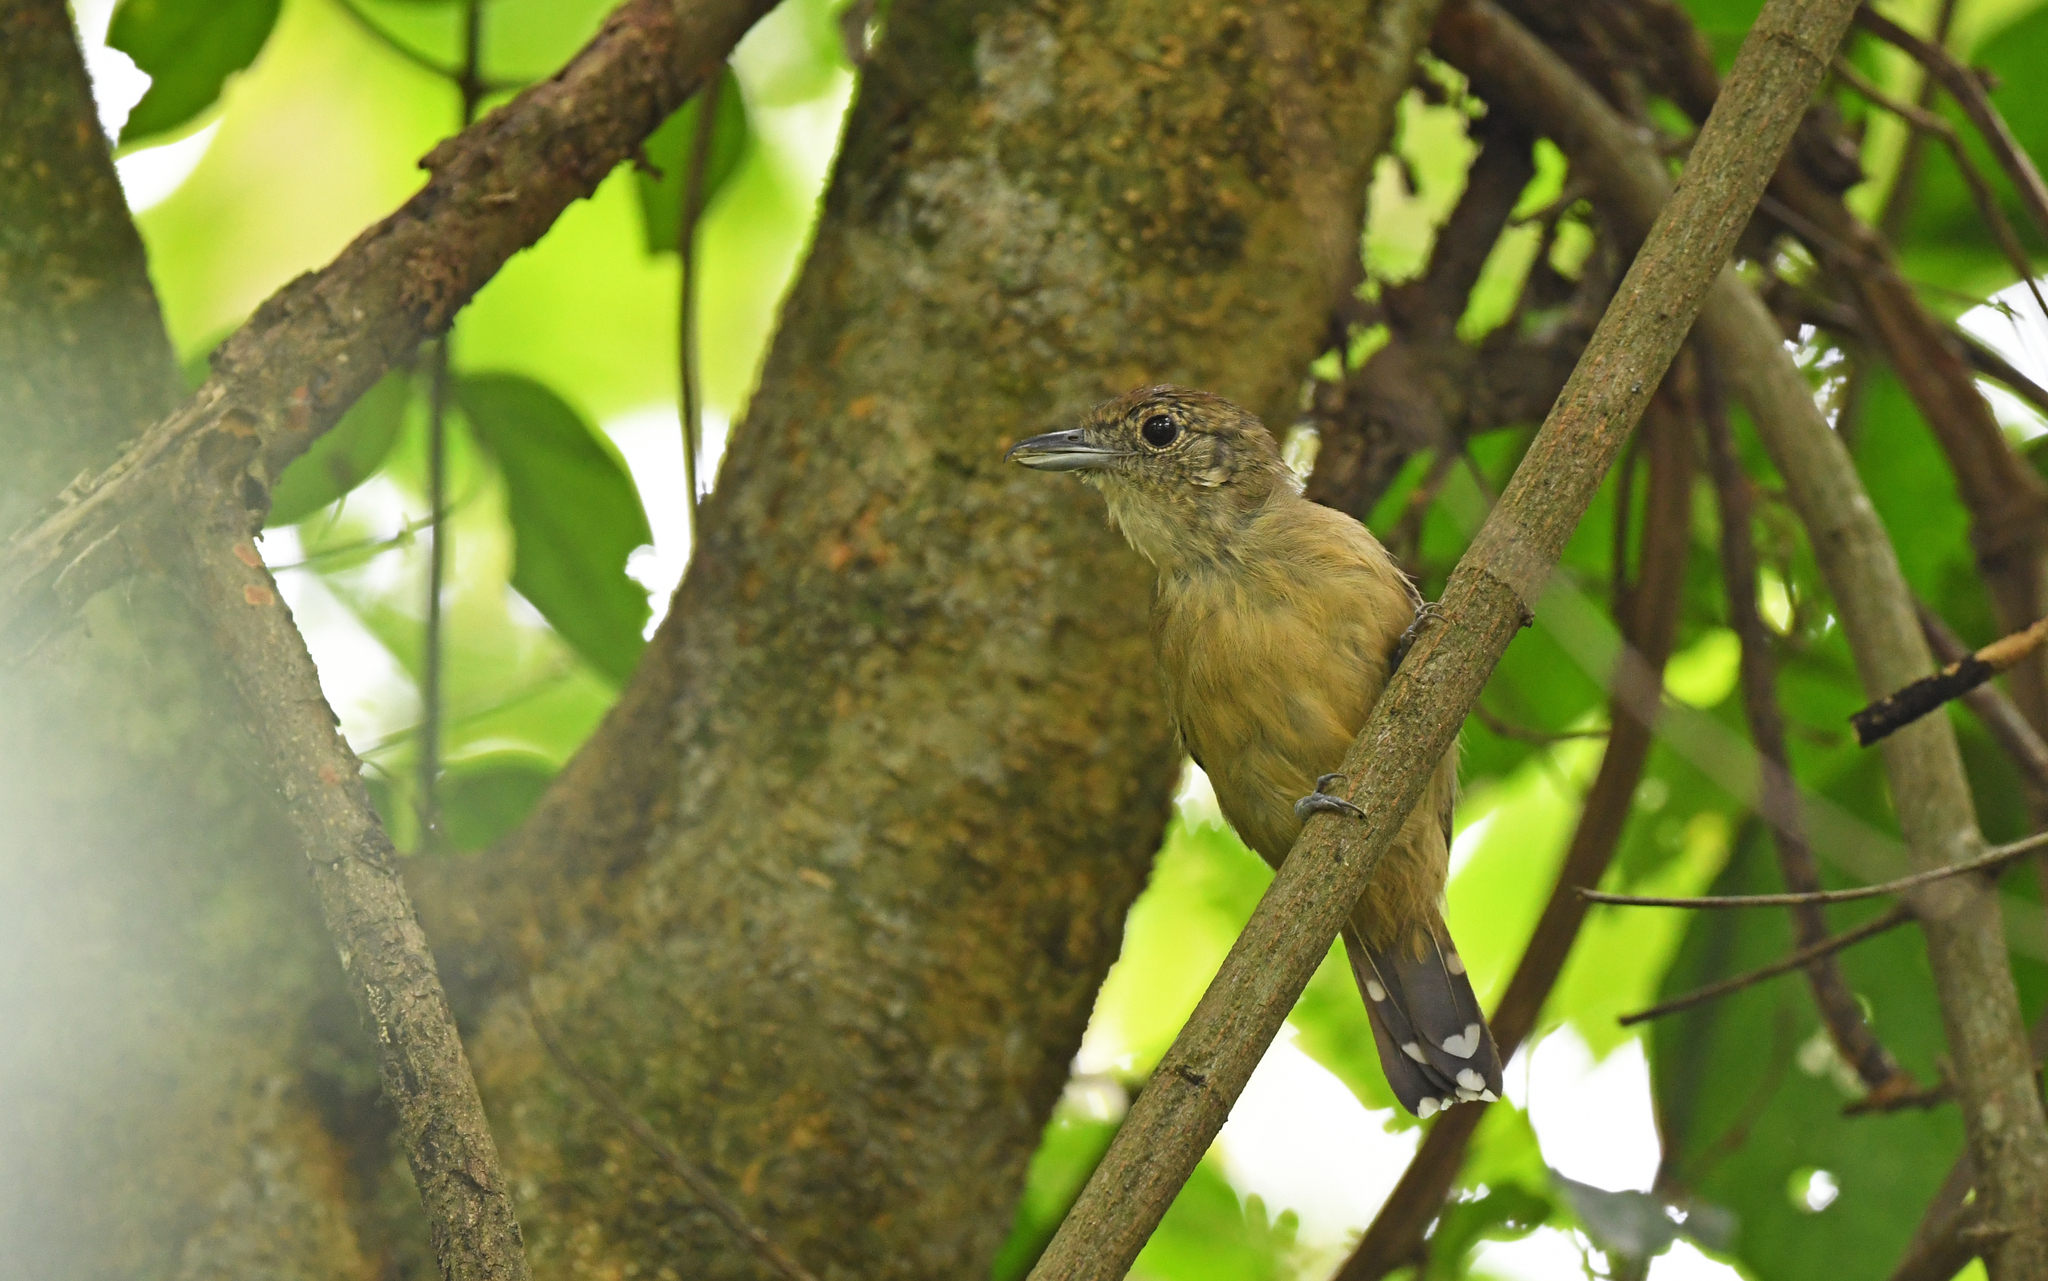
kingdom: Animalia
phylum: Chordata
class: Aves
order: Passeriformes
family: Thamnophilidae
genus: Thamnophilus
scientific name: Thamnophilus atrinucha
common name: Black-crowned antshrike
